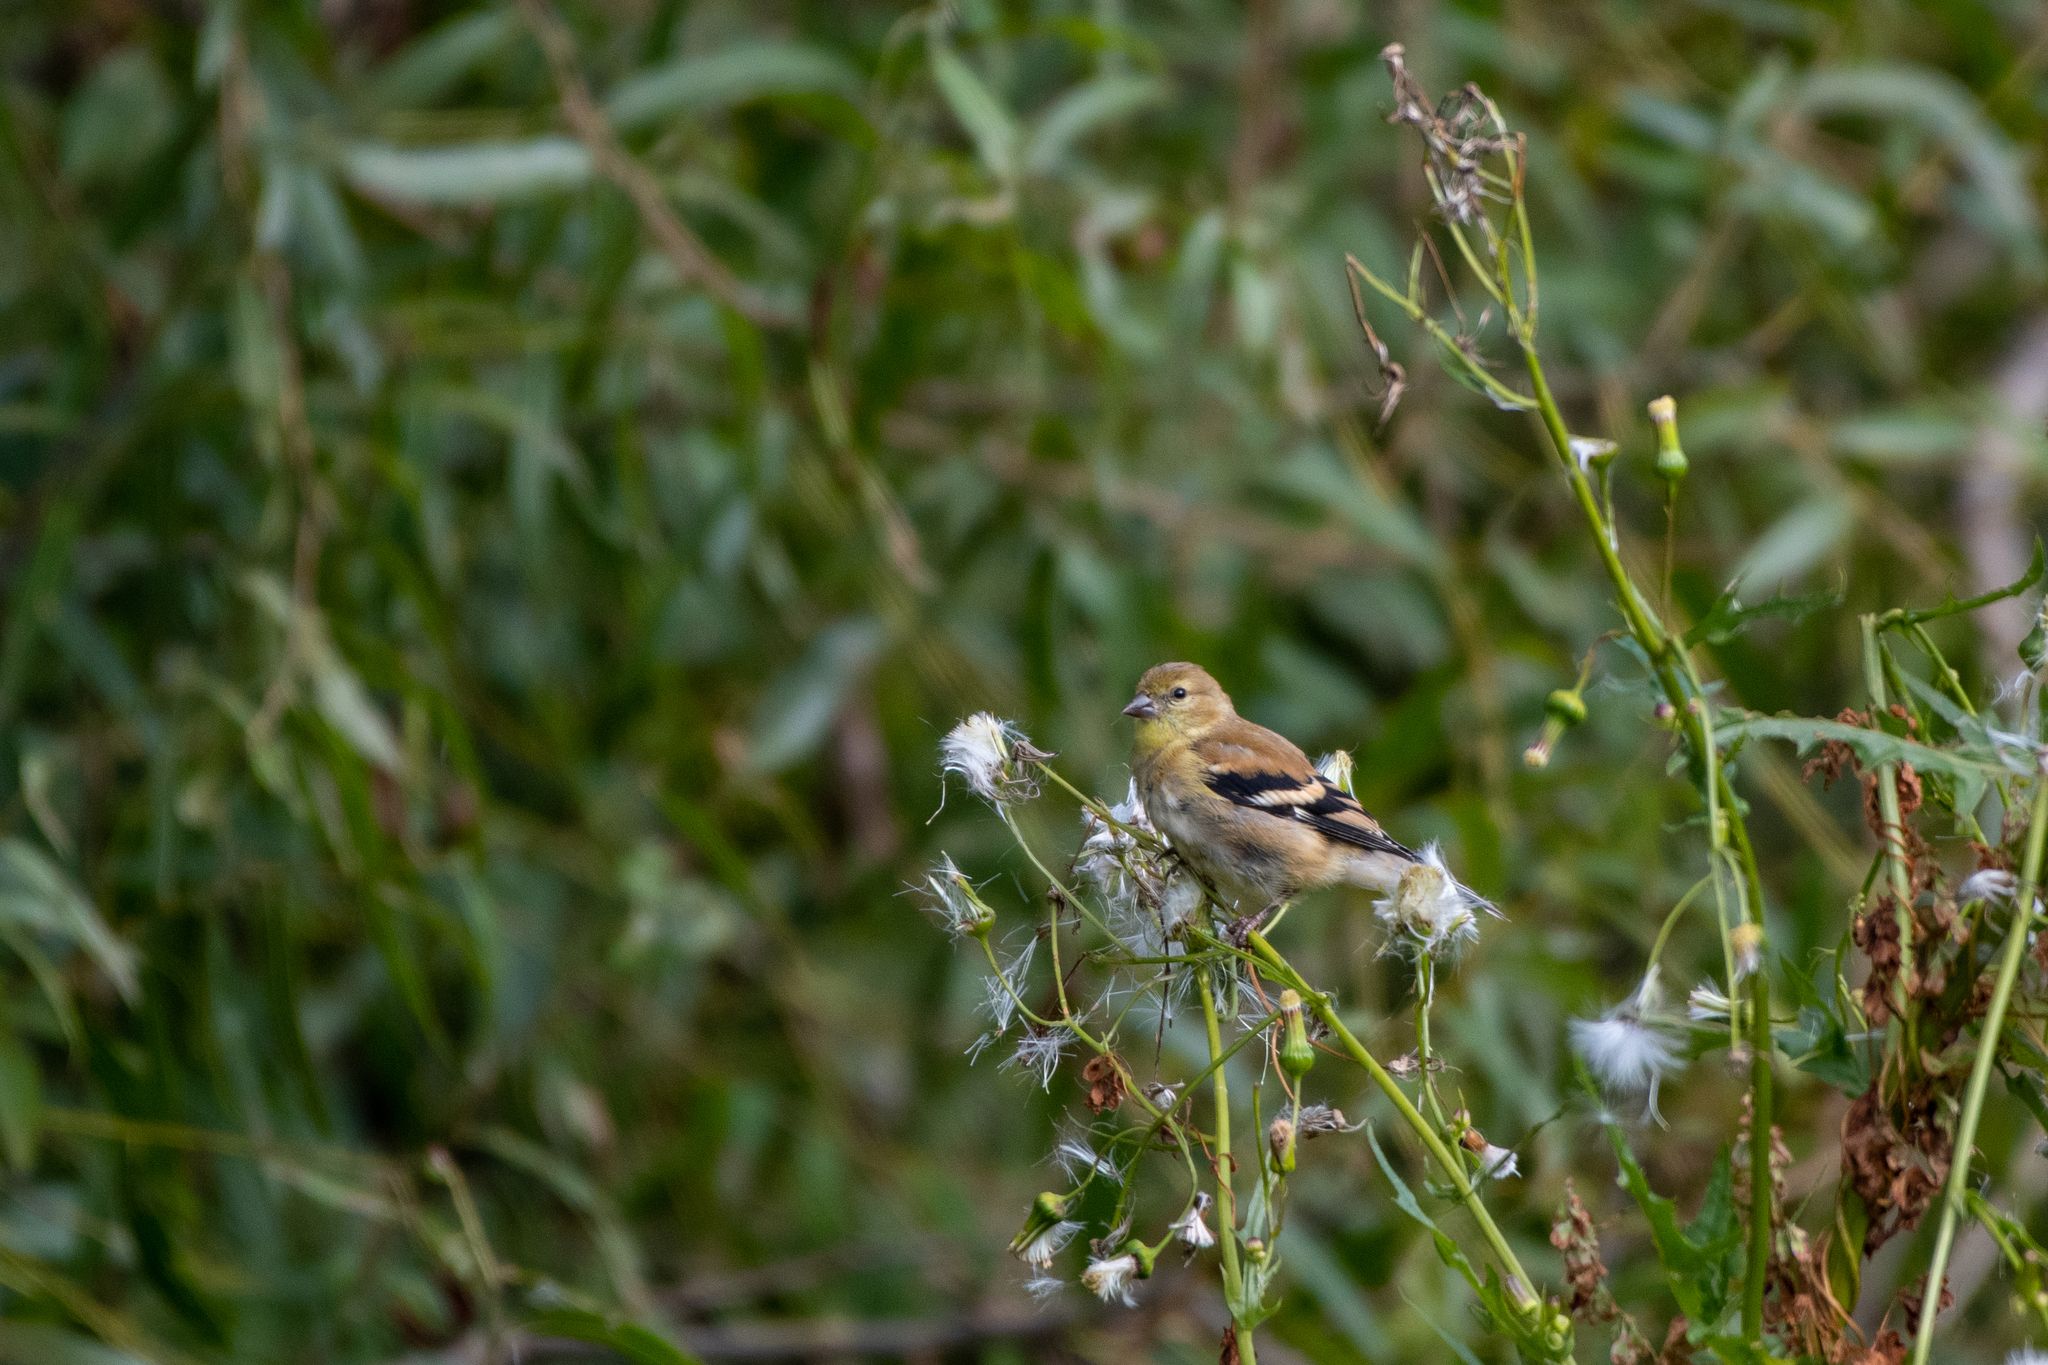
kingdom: Animalia
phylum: Chordata
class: Aves
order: Passeriformes
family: Fringillidae
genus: Spinus
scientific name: Spinus tristis
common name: American goldfinch
